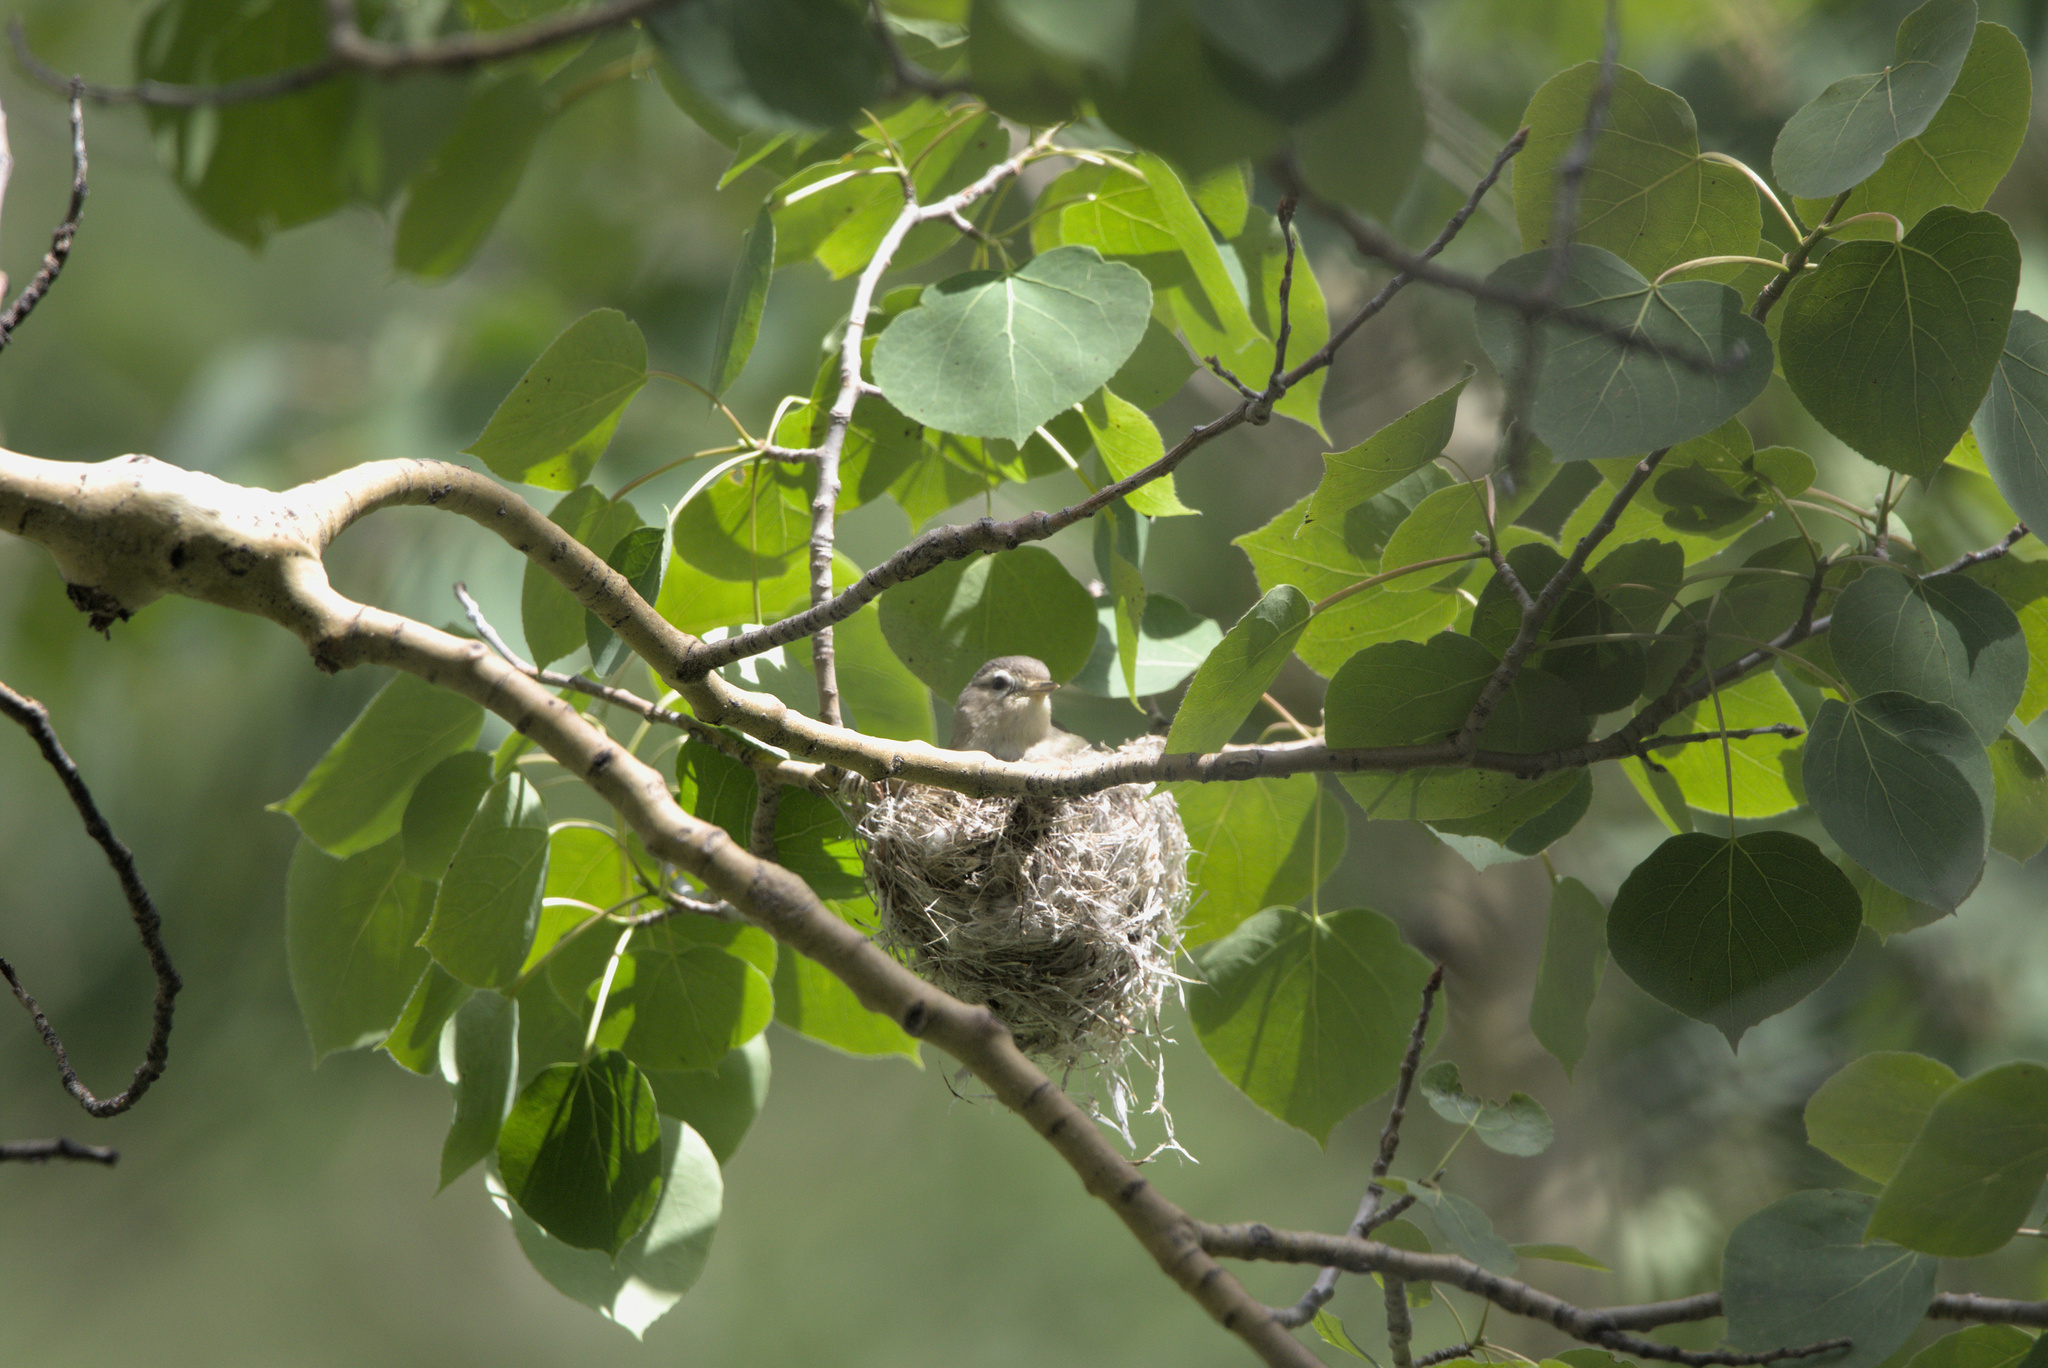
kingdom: Animalia
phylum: Chordata
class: Aves
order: Passeriformes
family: Vireonidae
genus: Vireo
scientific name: Vireo gilvus
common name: Warbling vireo
